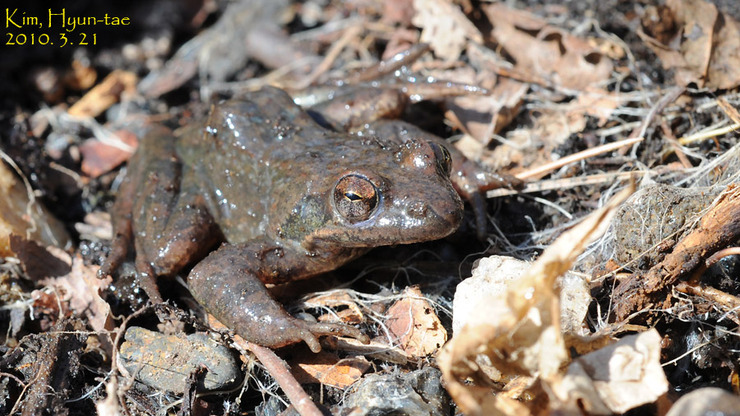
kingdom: Animalia
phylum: Chordata
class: Amphibia
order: Anura
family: Ranidae
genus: Rana
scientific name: Rana huanrenensis
